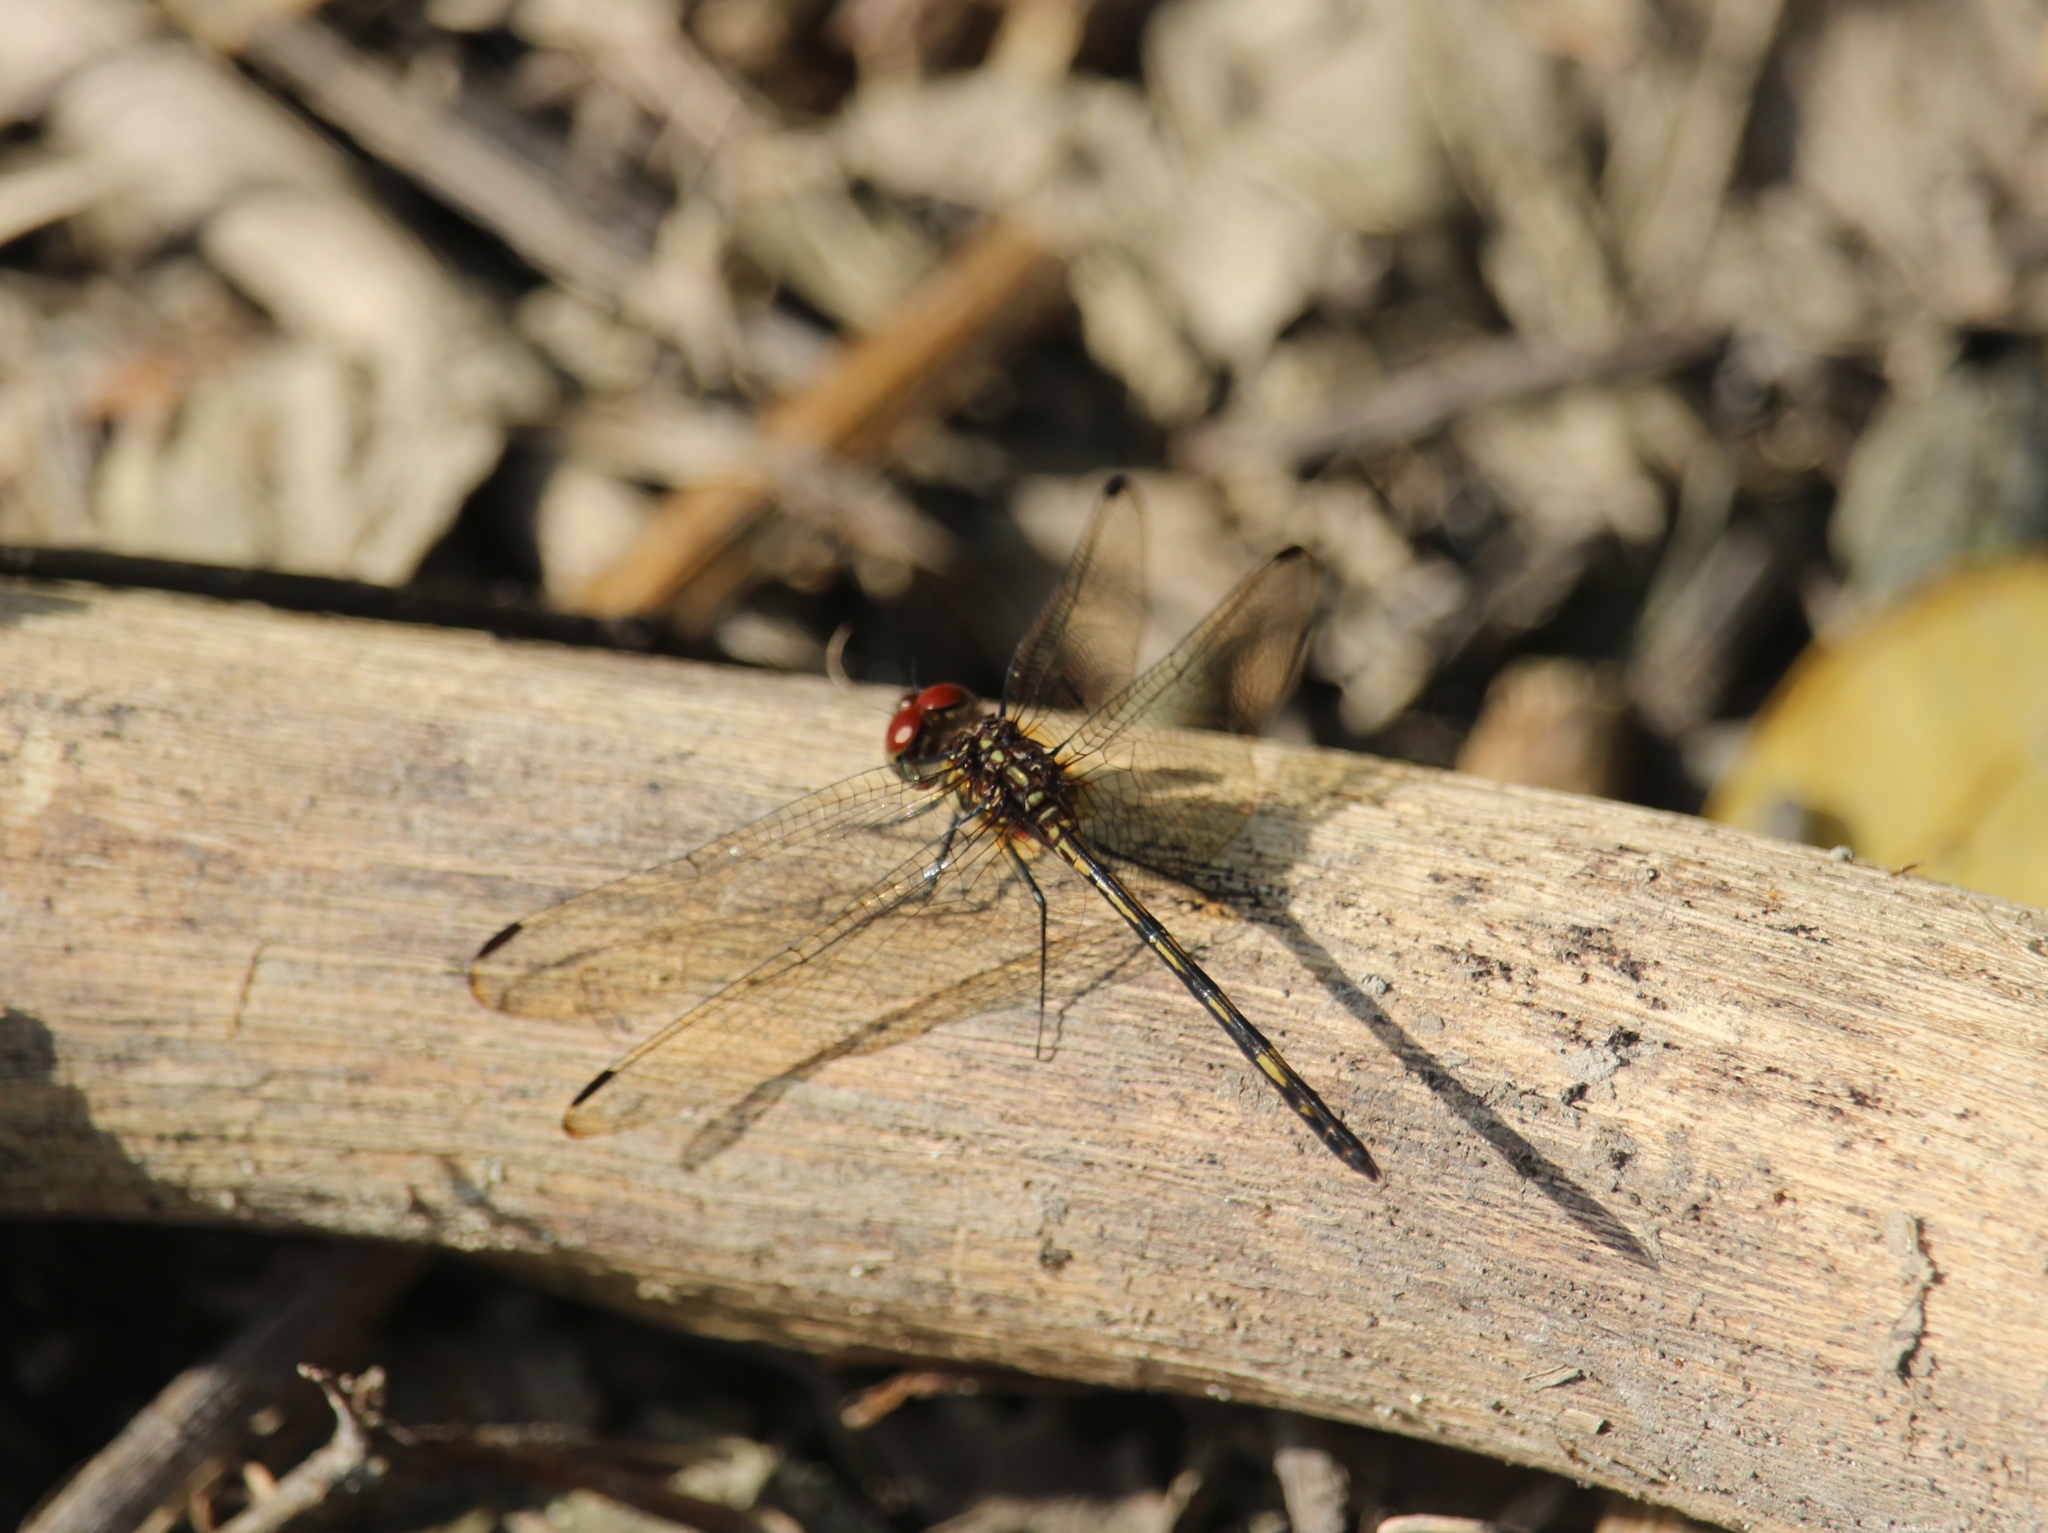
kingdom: Animalia
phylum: Arthropoda
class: Insecta
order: Odonata
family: Libellulidae
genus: Dythemis
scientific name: Dythemis sterilis
